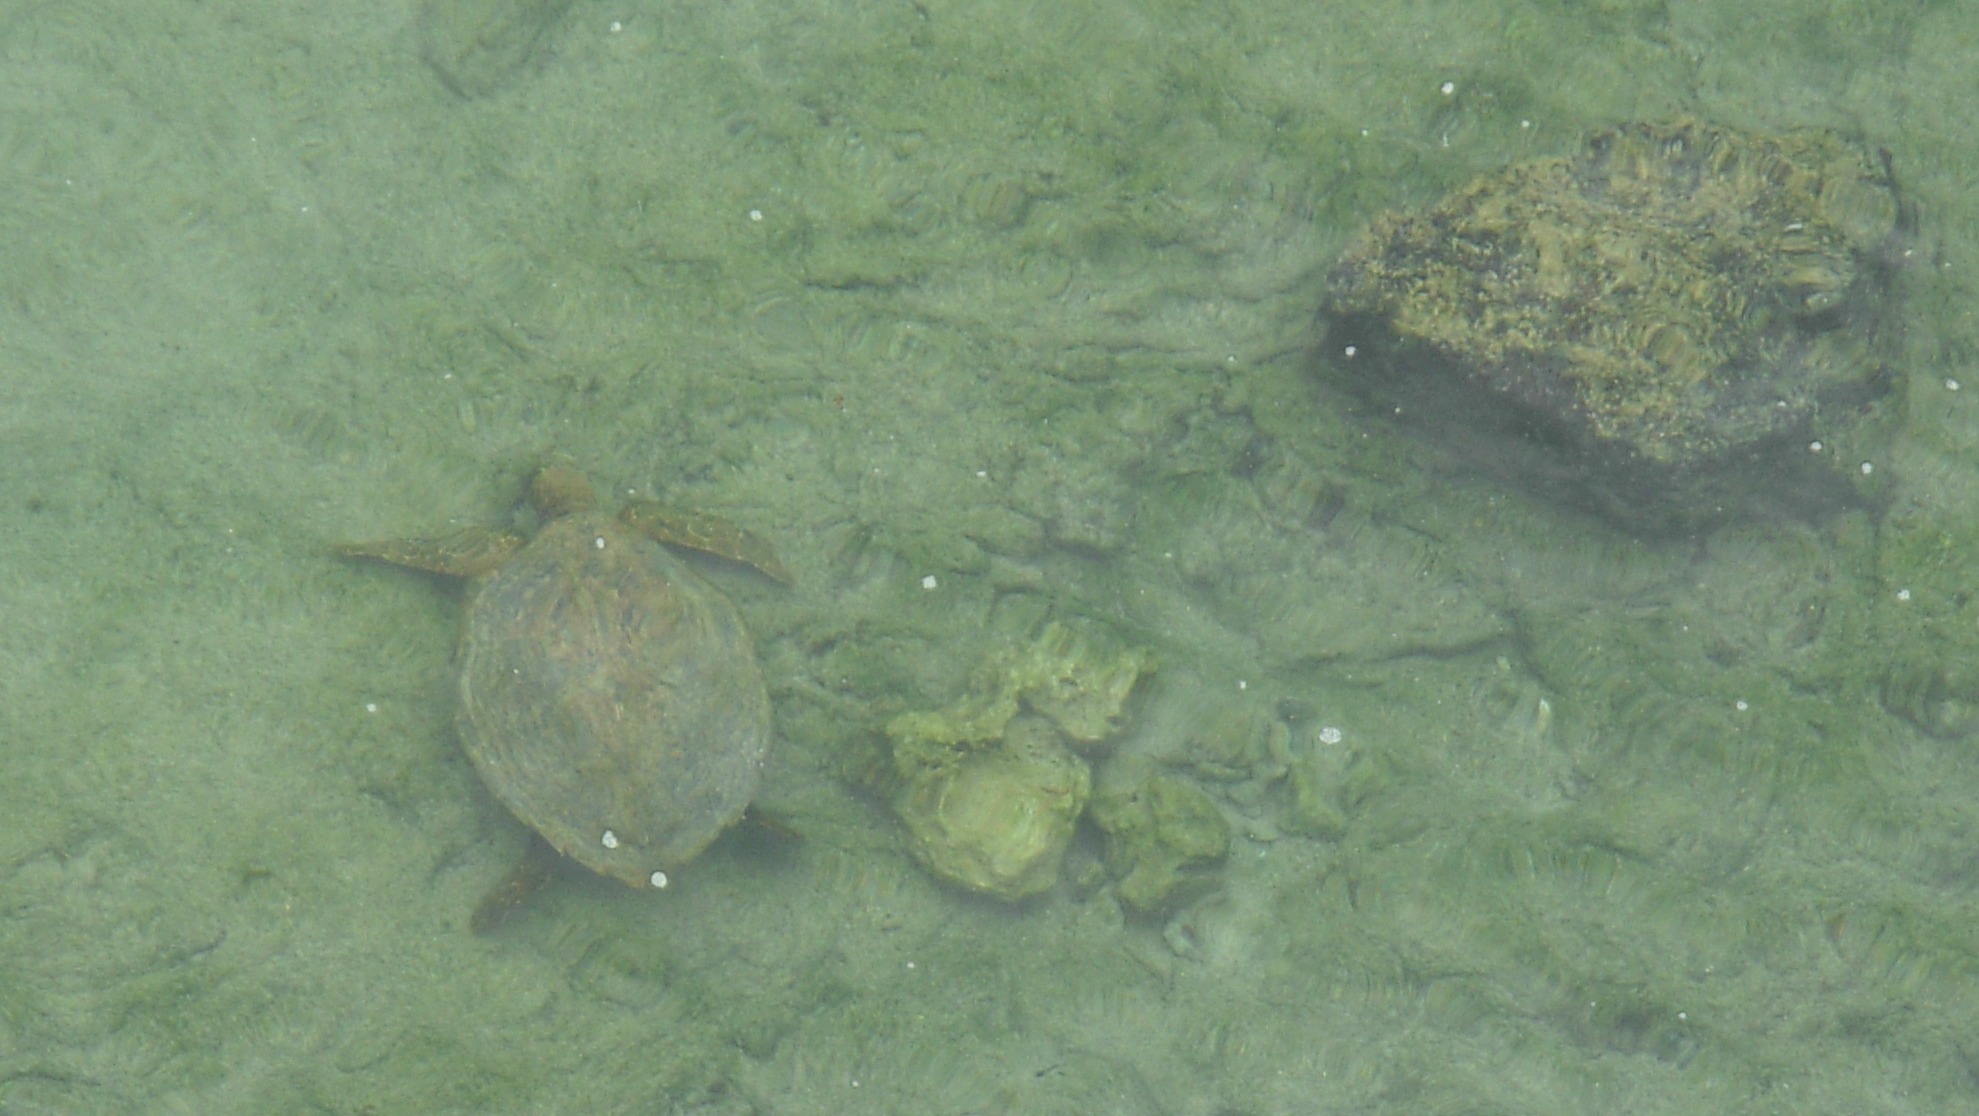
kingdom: Animalia
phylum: Chordata
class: Testudines
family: Cheloniidae
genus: Chelonia
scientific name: Chelonia mydas
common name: Green turtle
